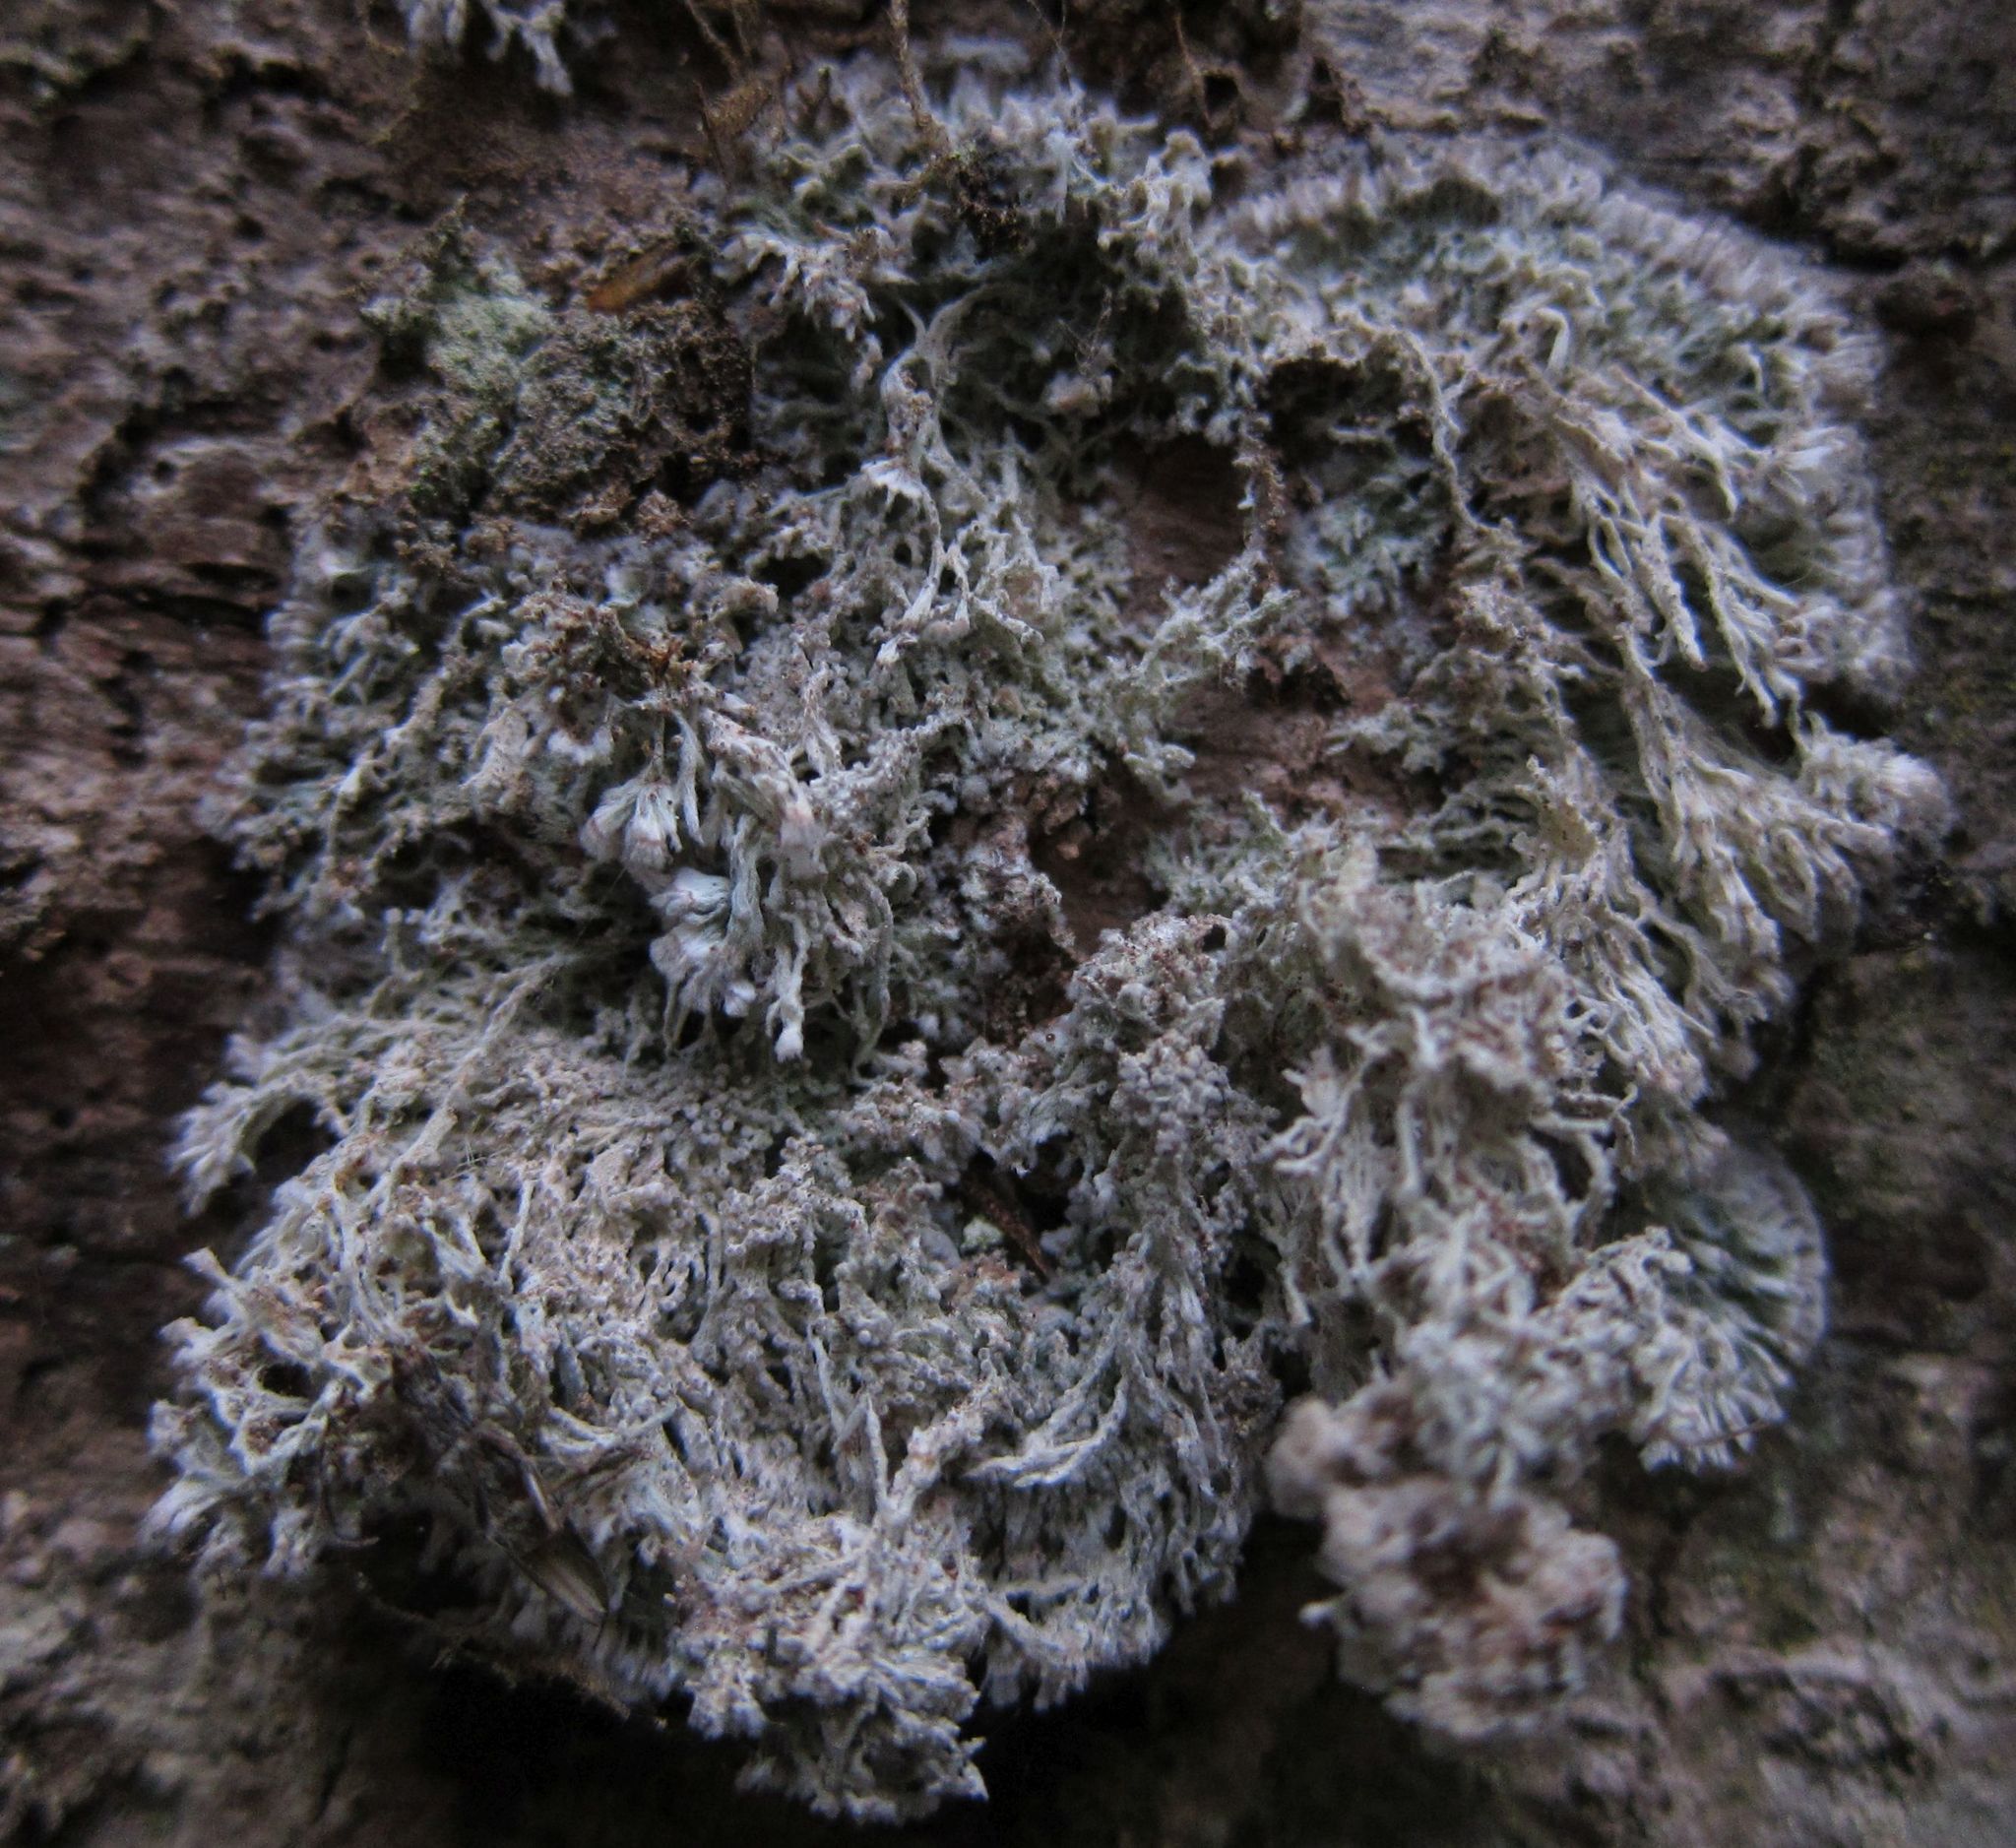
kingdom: Fungi
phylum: Ascomycota
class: Arthoniomycetes
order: Arthoniales
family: Roccellaceae
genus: Lecanactis
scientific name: Lecanactis mollis
